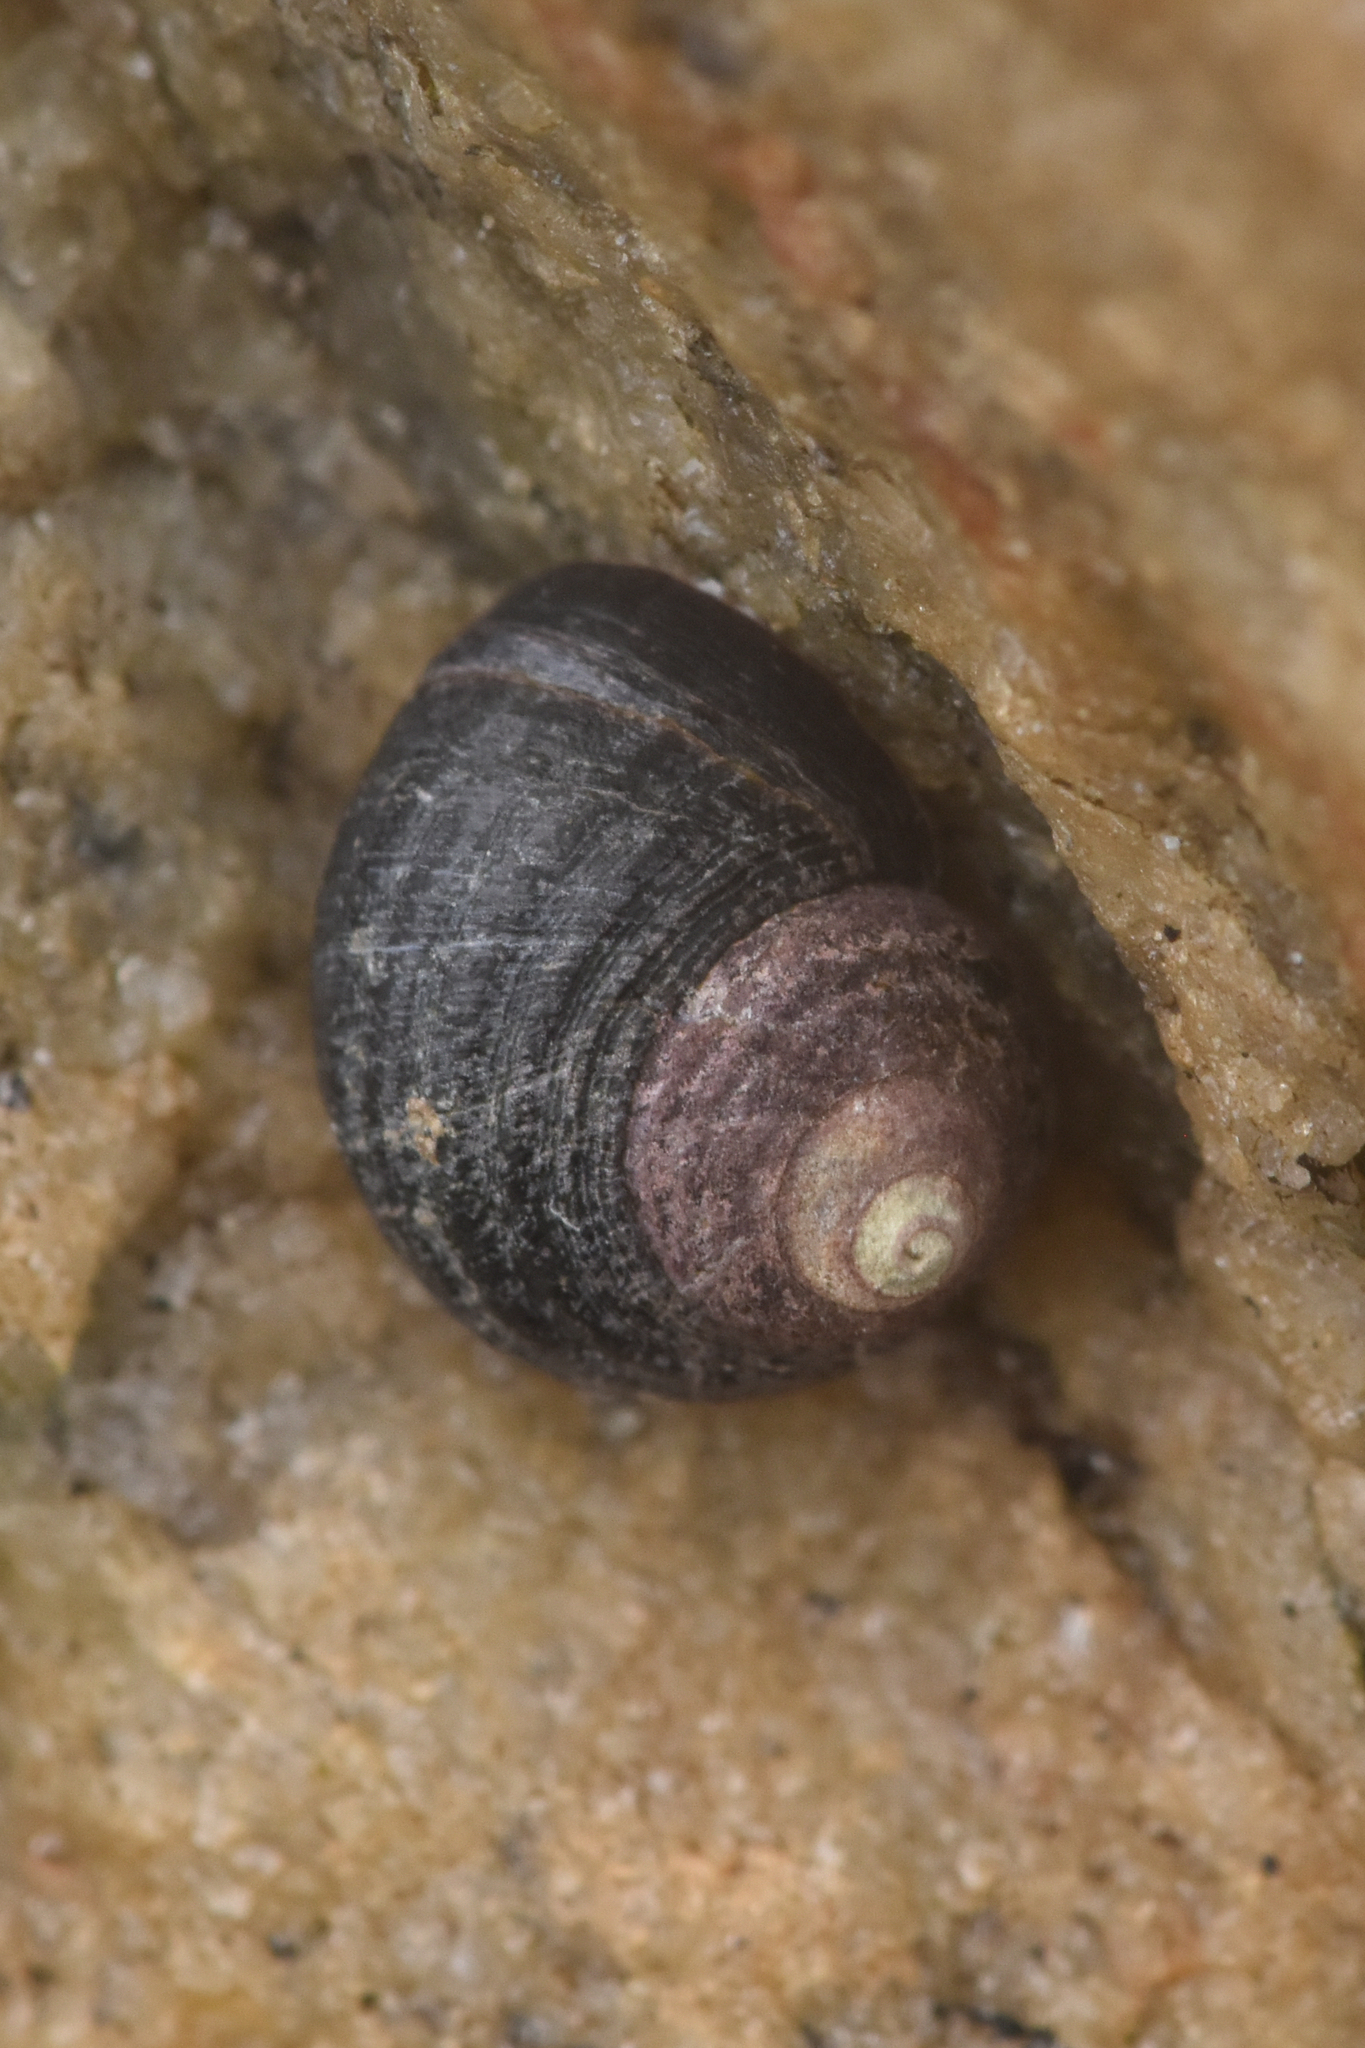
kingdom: Animalia
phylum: Mollusca
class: Gastropoda
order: Littorinimorpha
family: Littorinidae
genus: Littorina
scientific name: Littorina sitkana
